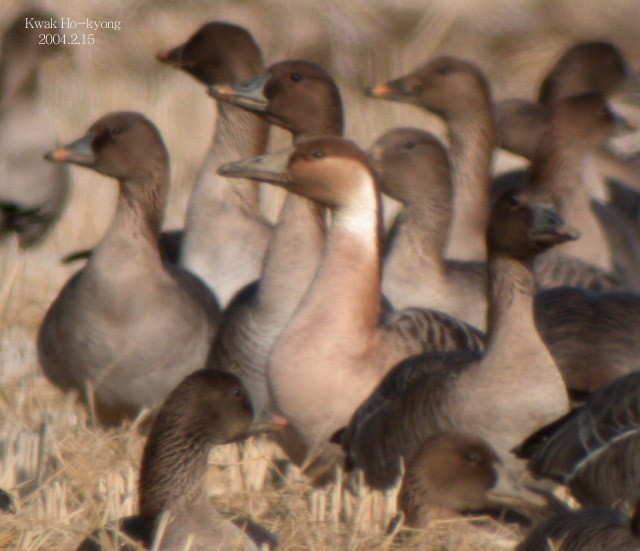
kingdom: Animalia
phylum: Chordata
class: Aves
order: Anseriformes
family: Anatidae
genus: Anser
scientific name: Anser cygnoides
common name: Swan goose
